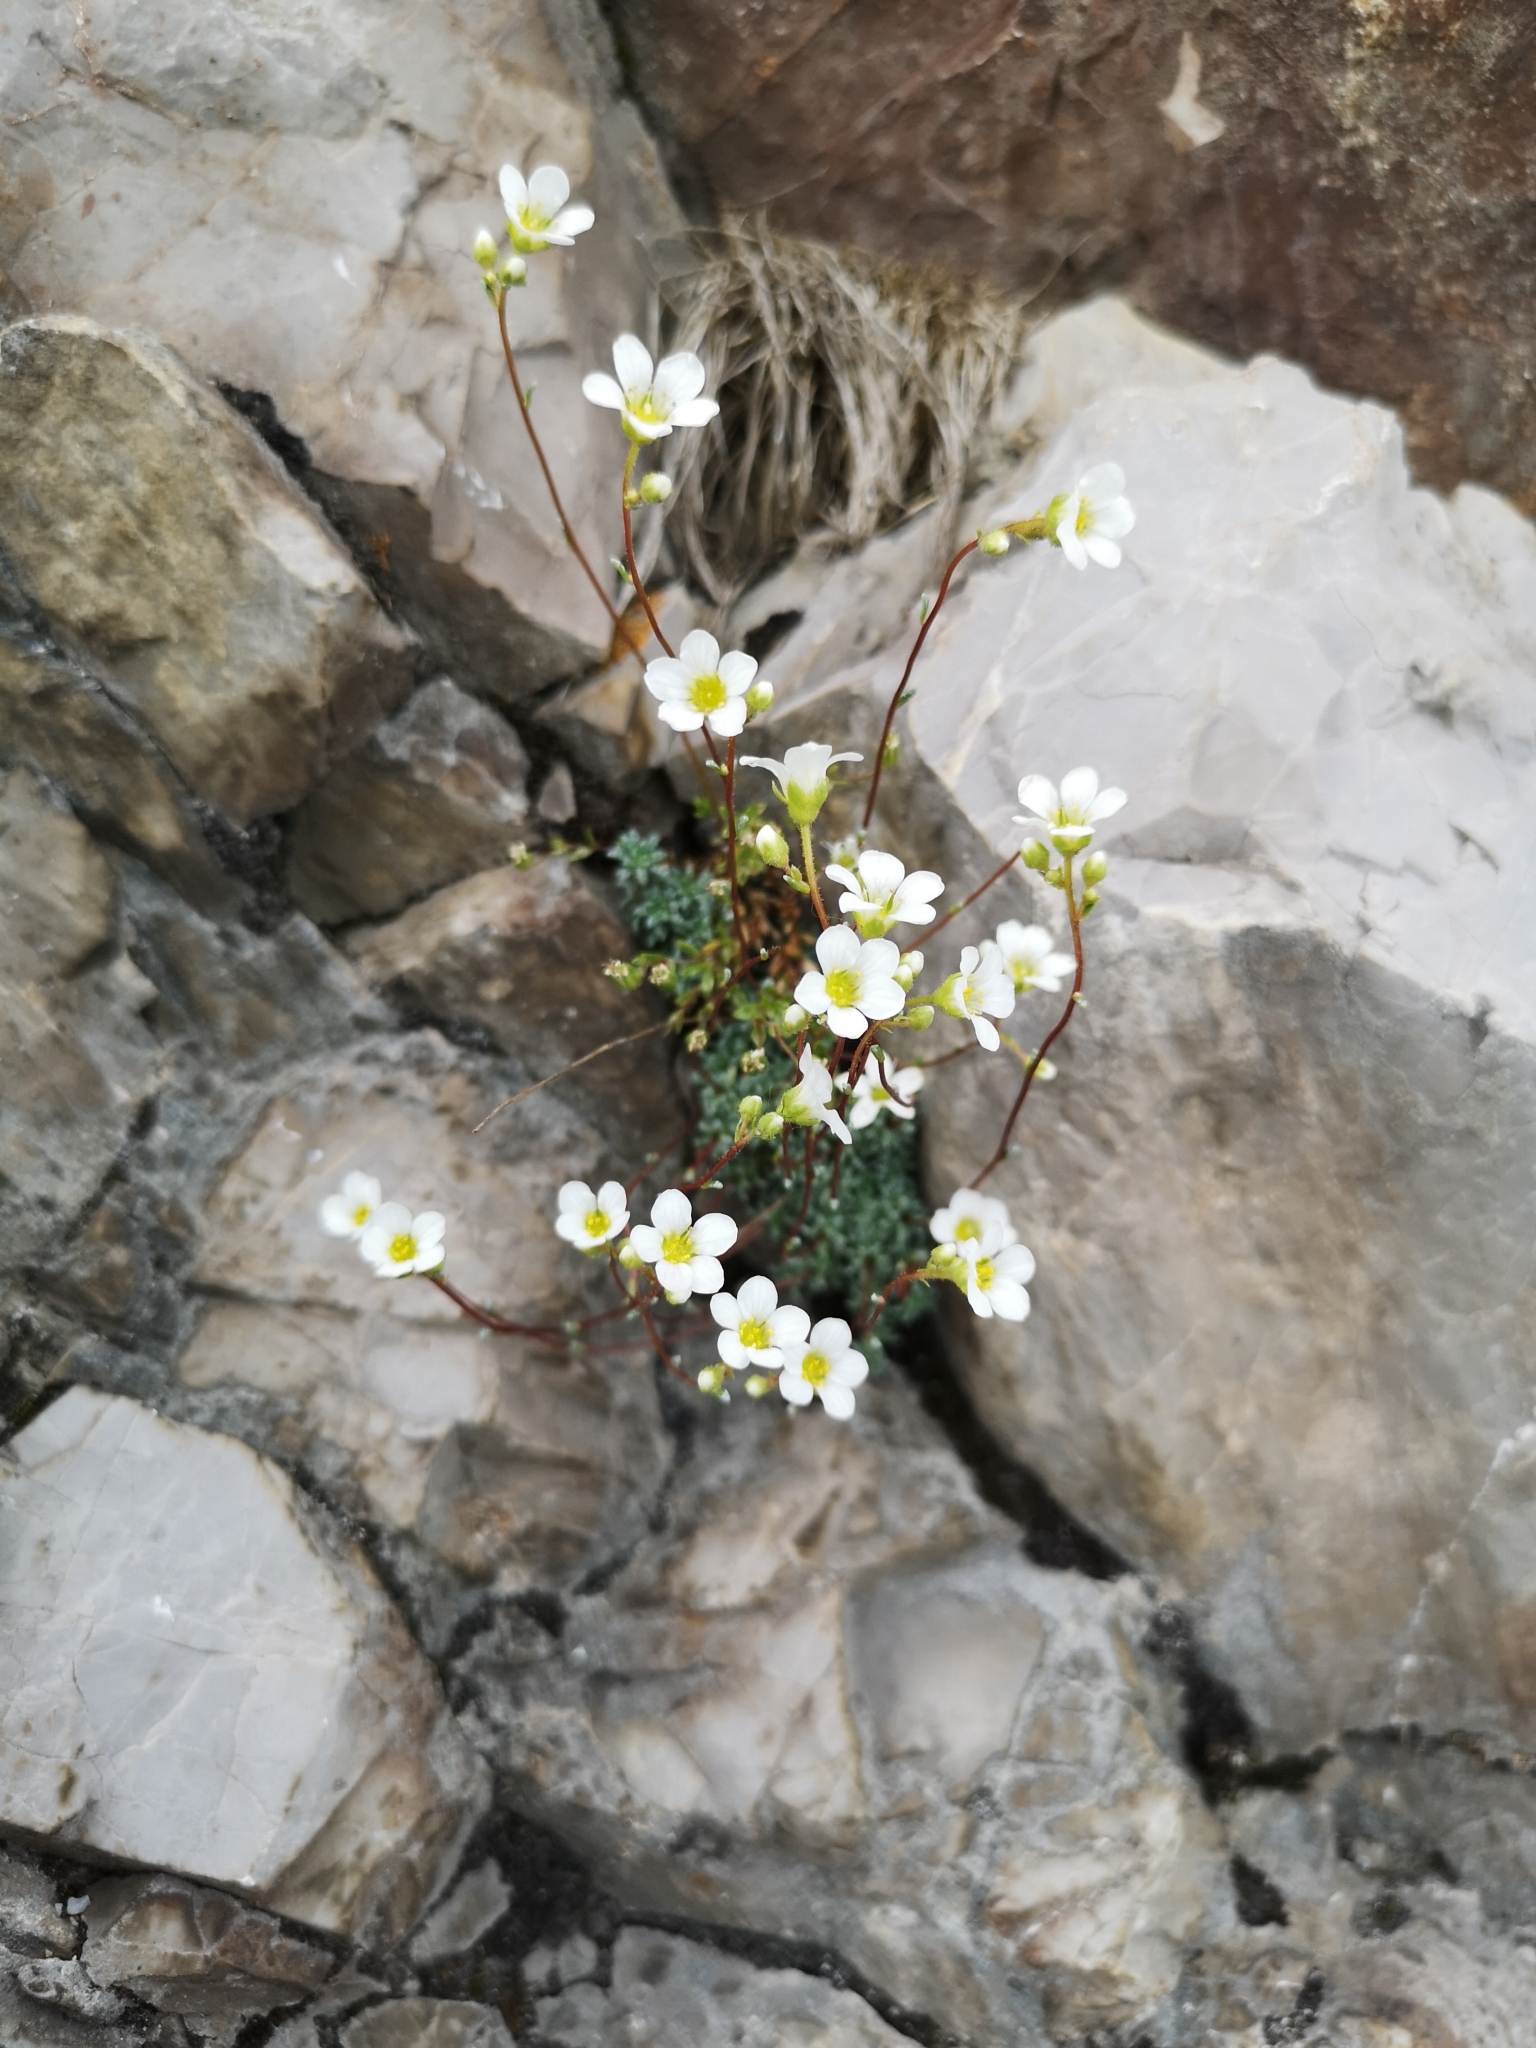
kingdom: Plantae
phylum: Tracheophyta
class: Magnoliopsida
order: Saxifragales
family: Saxifragaceae
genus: Saxifraga
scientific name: Saxifraga caesia
